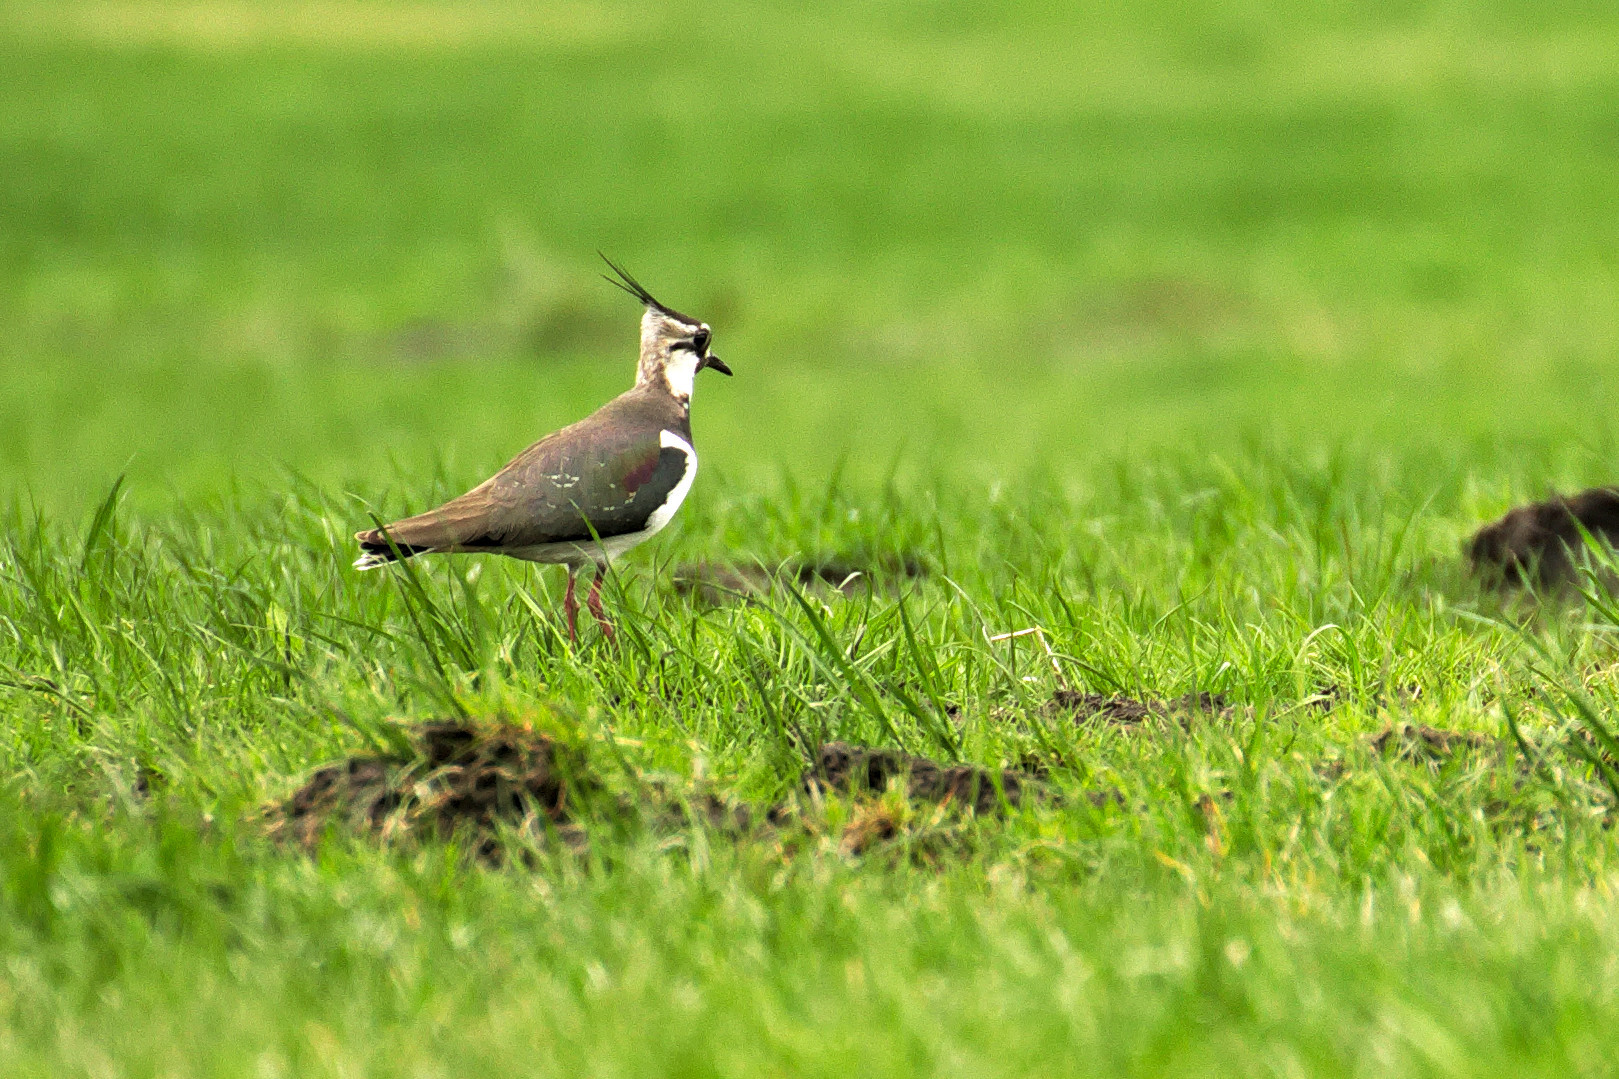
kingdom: Animalia
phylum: Chordata
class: Aves
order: Charadriiformes
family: Charadriidae
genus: Vanellus
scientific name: Vanellus vanellus
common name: Northern lapwing
